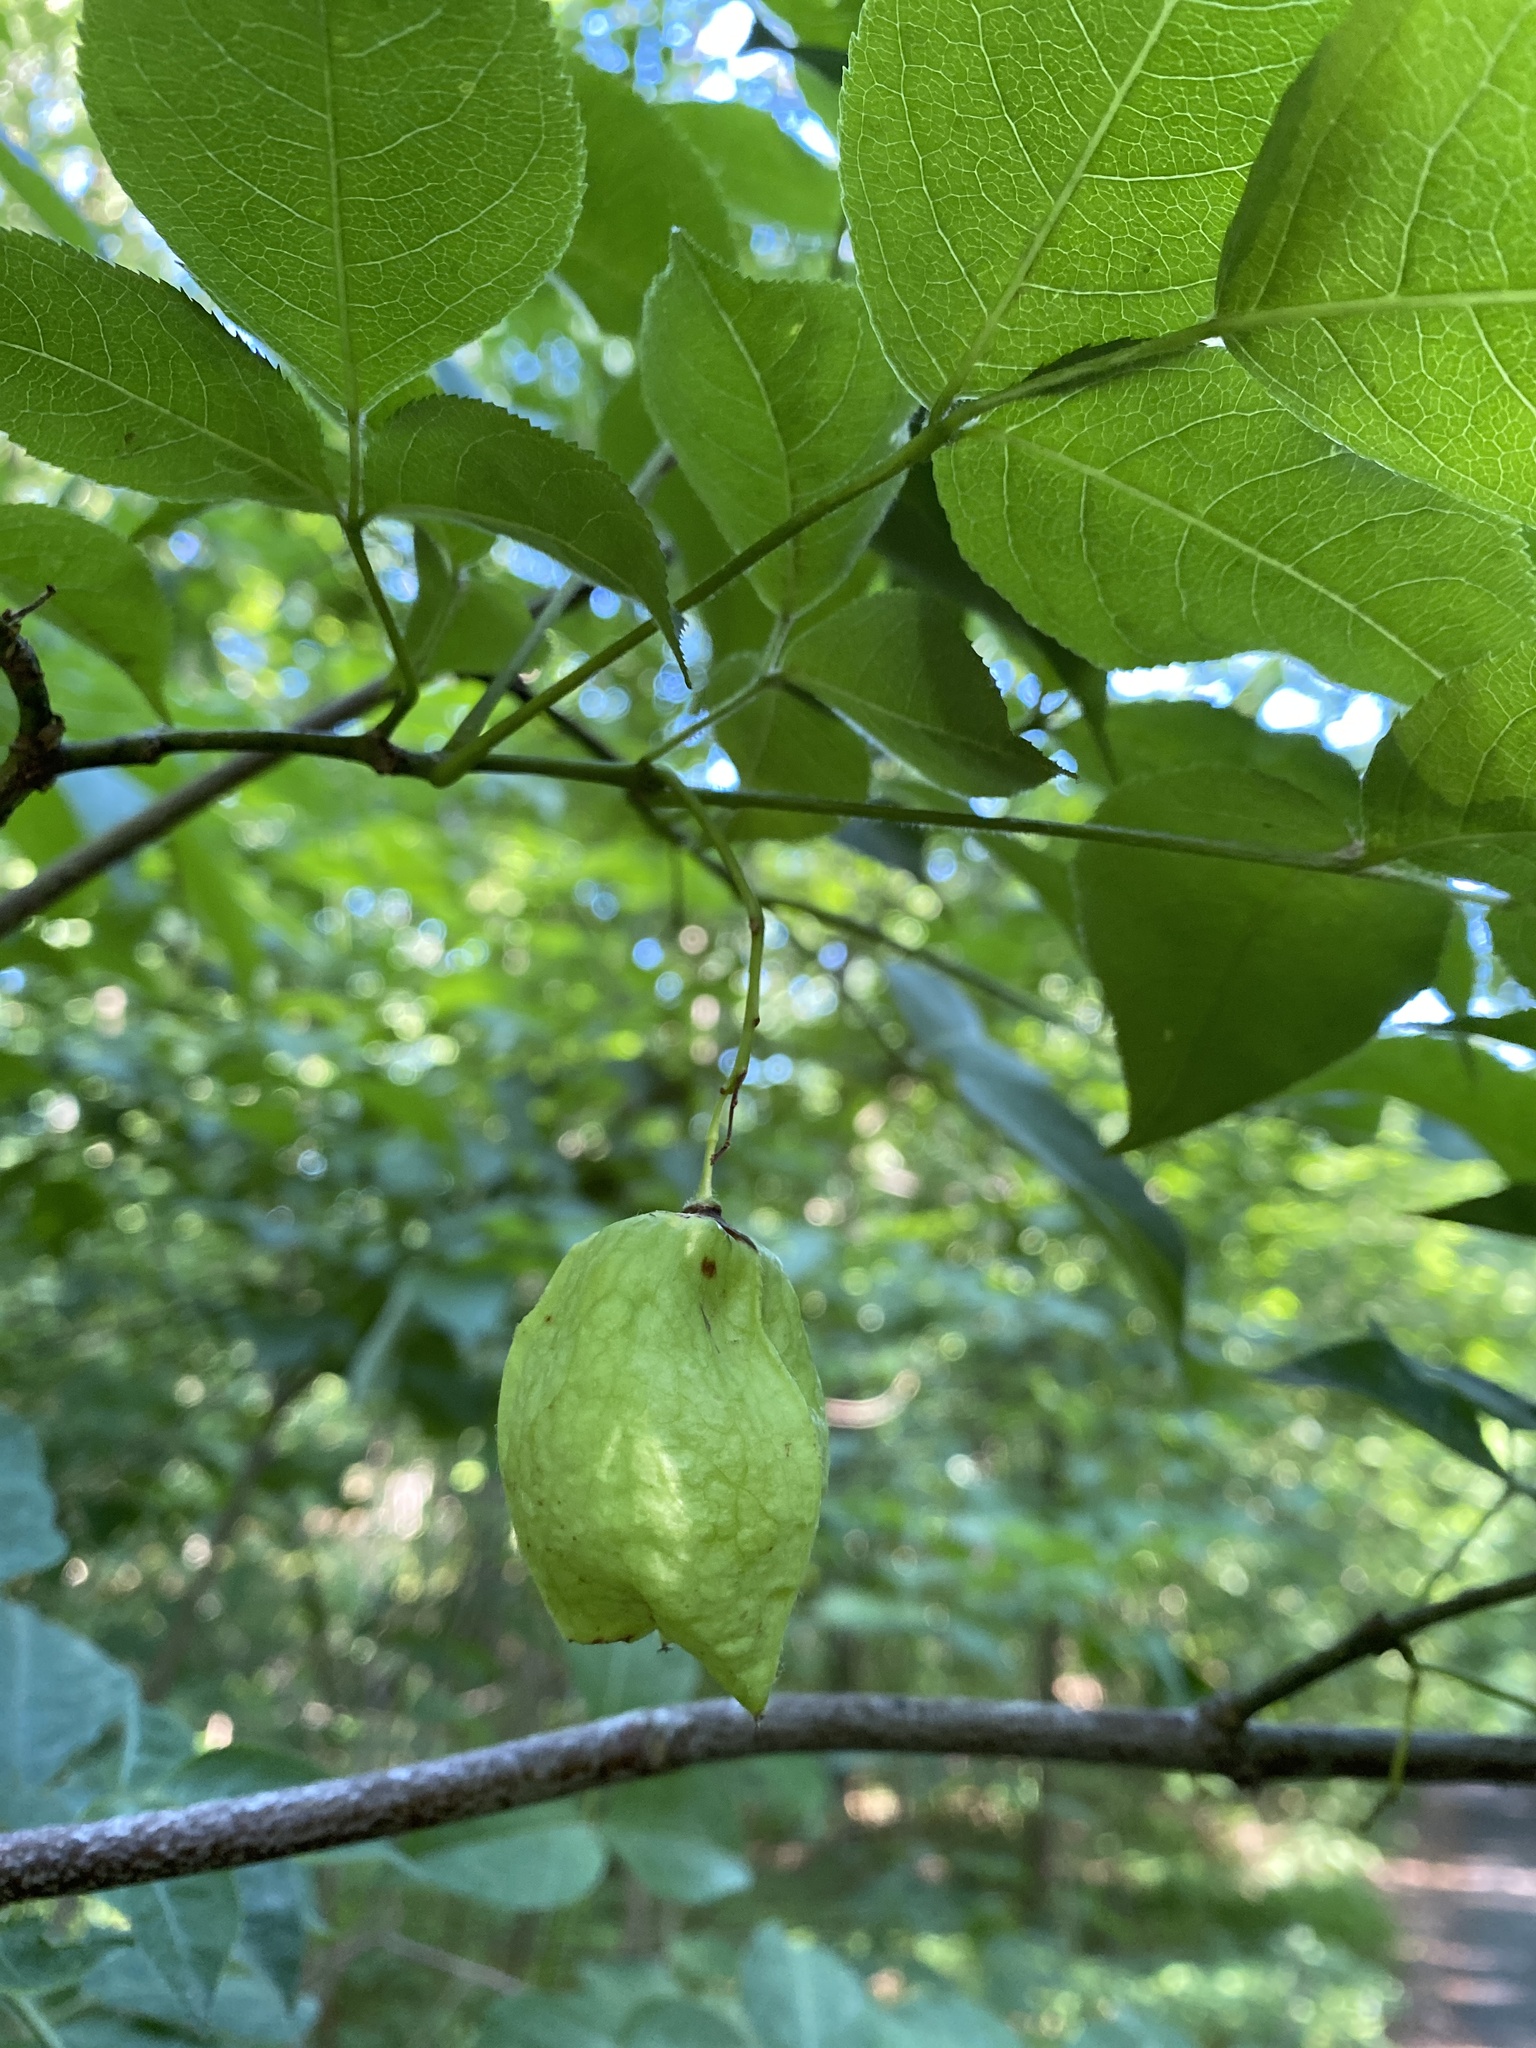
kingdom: Plantae
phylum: Tracheophyta
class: Magnoliopsida
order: Crossosomatales
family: Staphyleaceae
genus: Staphylea
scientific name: Staphylea trifolia
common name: American bladdernut
